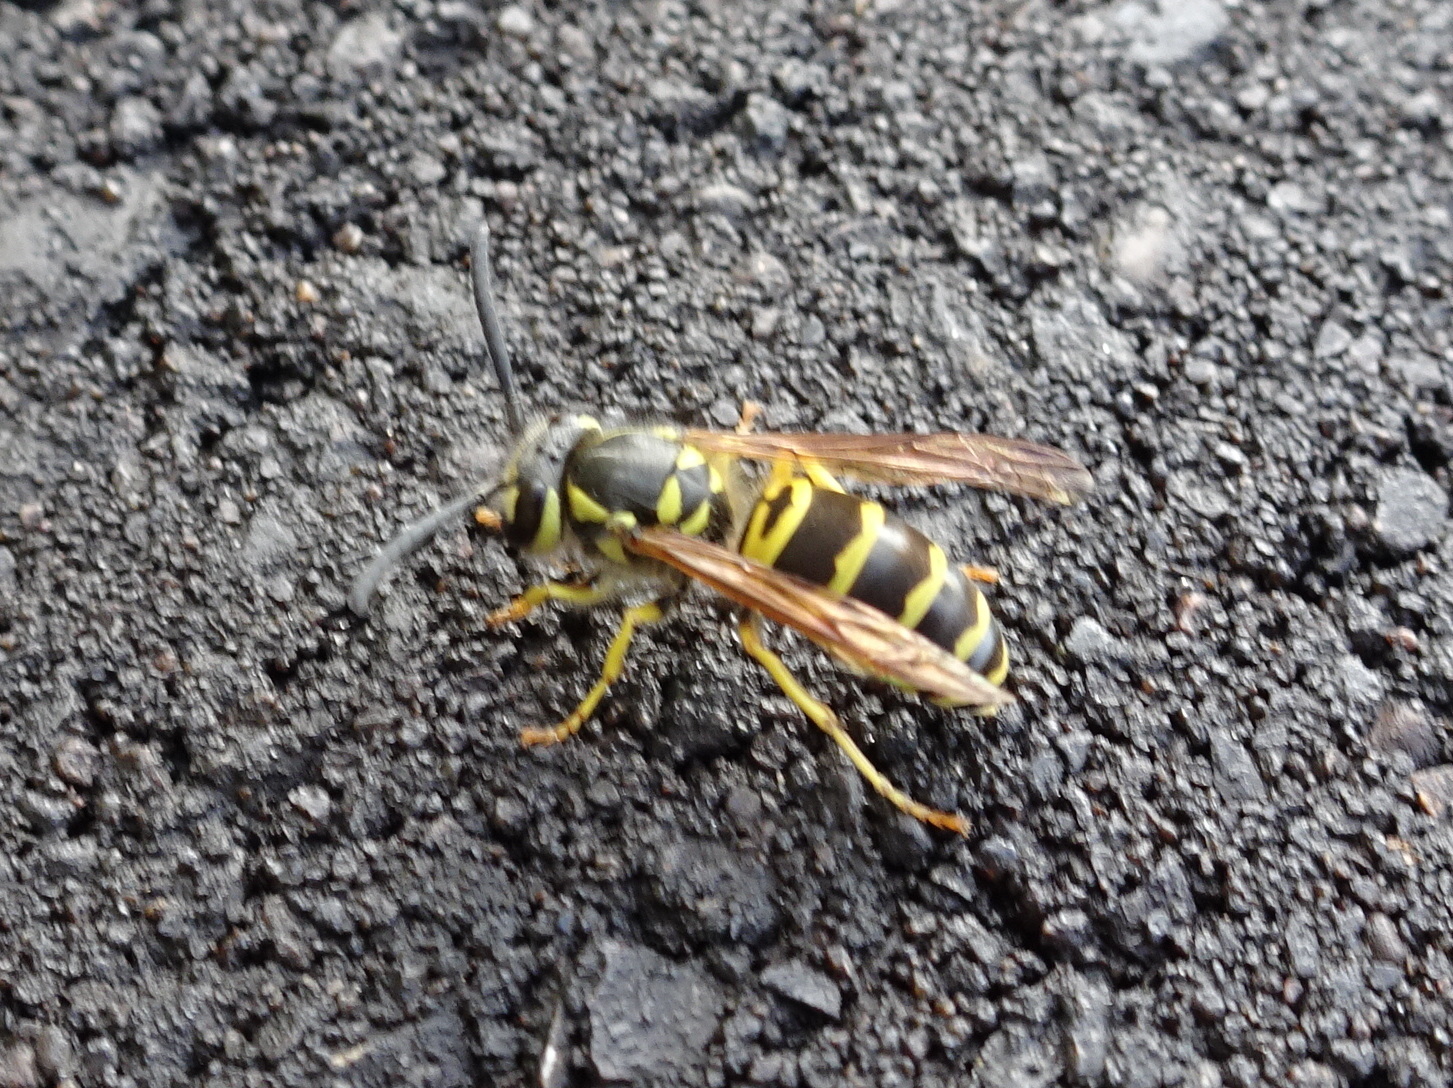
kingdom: Animalia
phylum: Arthropoda
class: Insecta
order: Hymenoptera
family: Vespidae
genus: Vespula
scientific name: Vespula maculifrons
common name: Eastern yellowjacket
